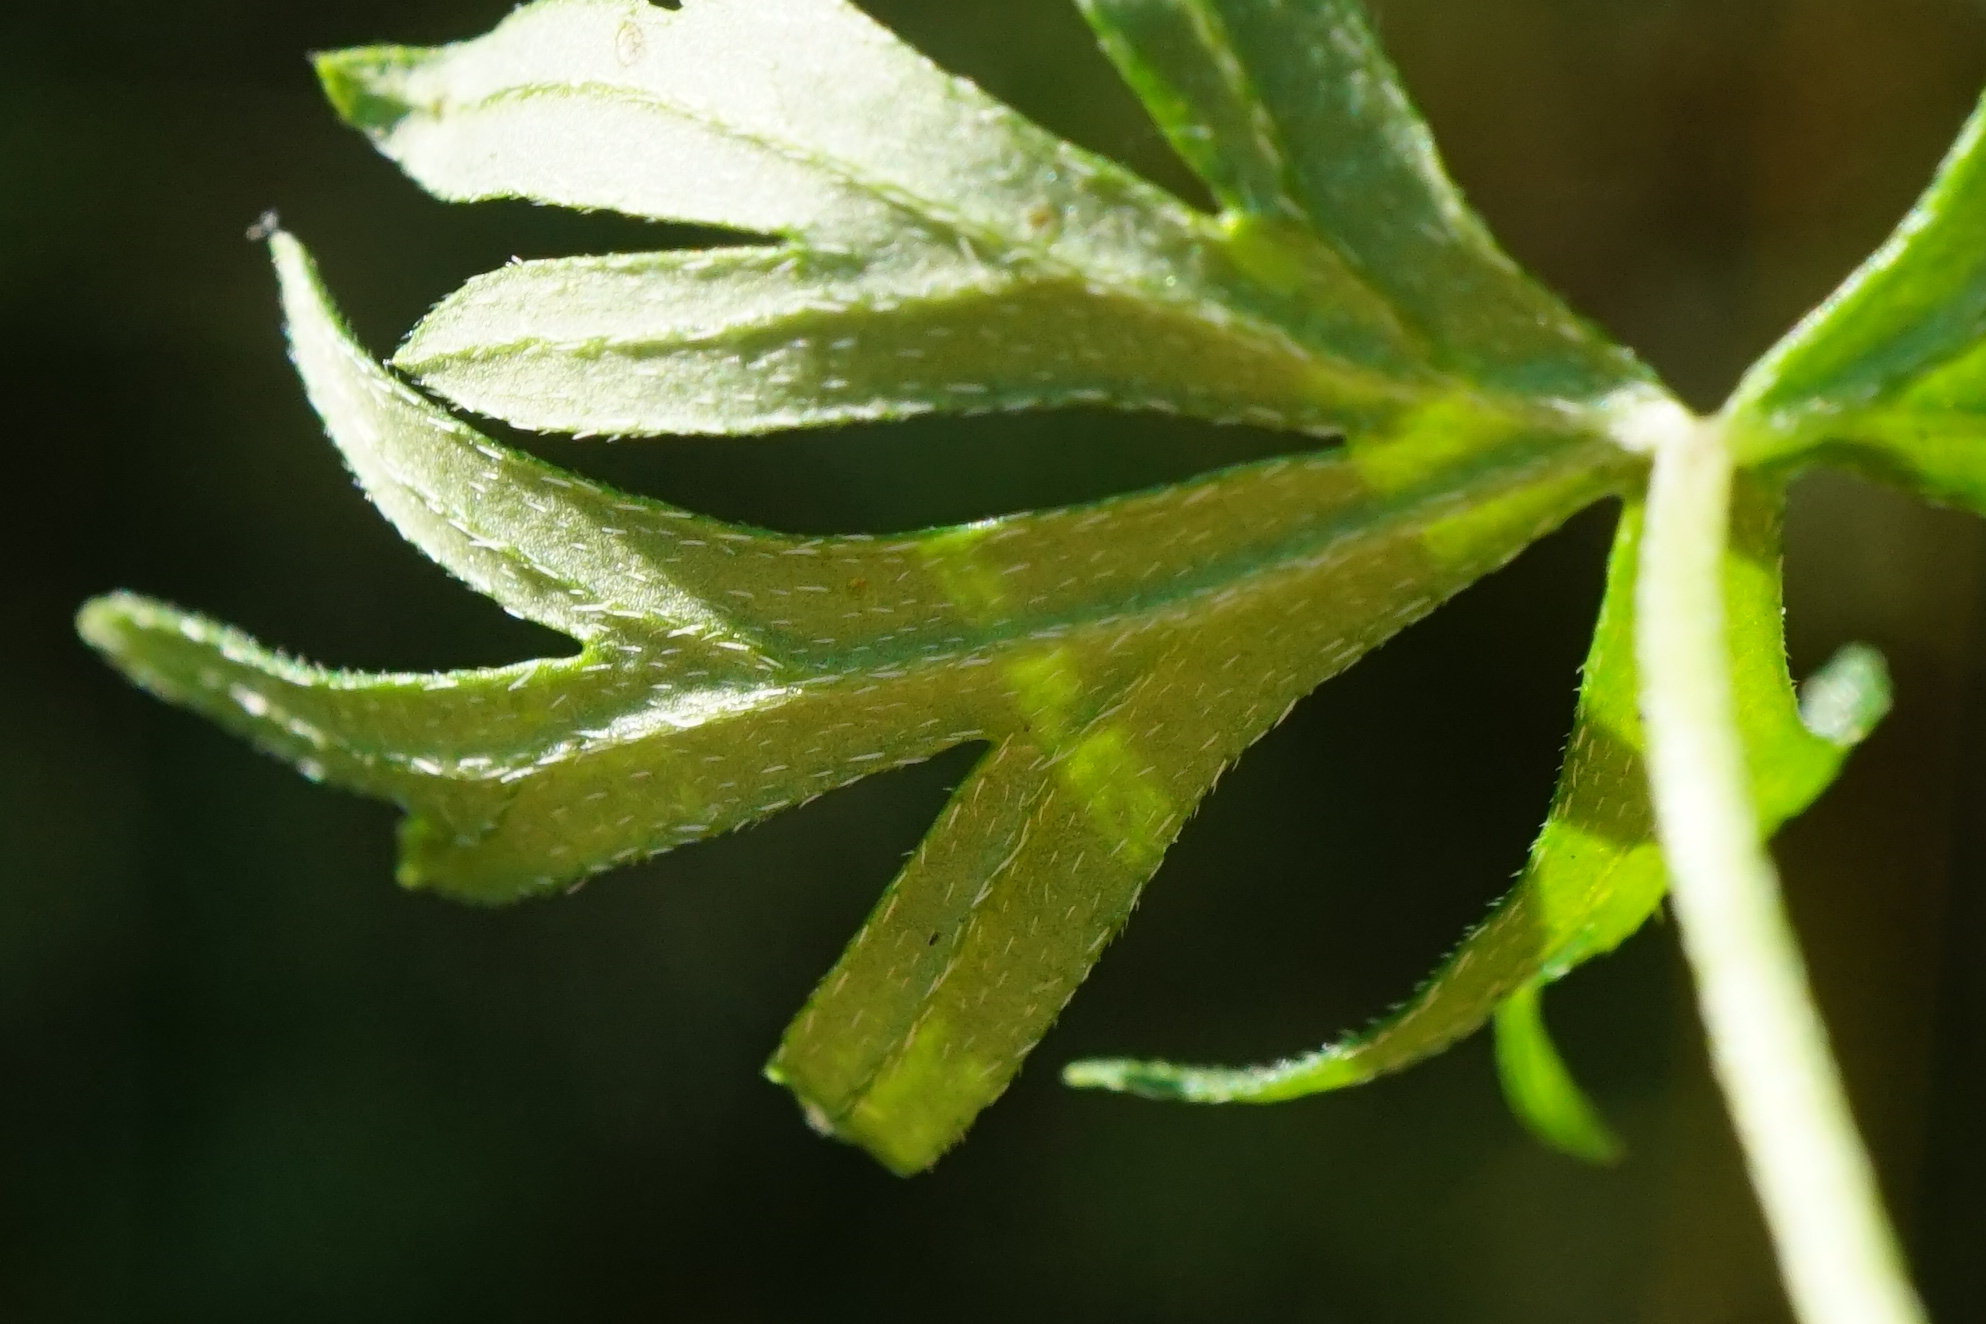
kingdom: Plantae
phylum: Tracheophyta
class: Magnoliopsida
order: Geraniales
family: Geraniaceae
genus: Geranium
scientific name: Geranium columbinum
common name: Long-stalked crane's-bill
